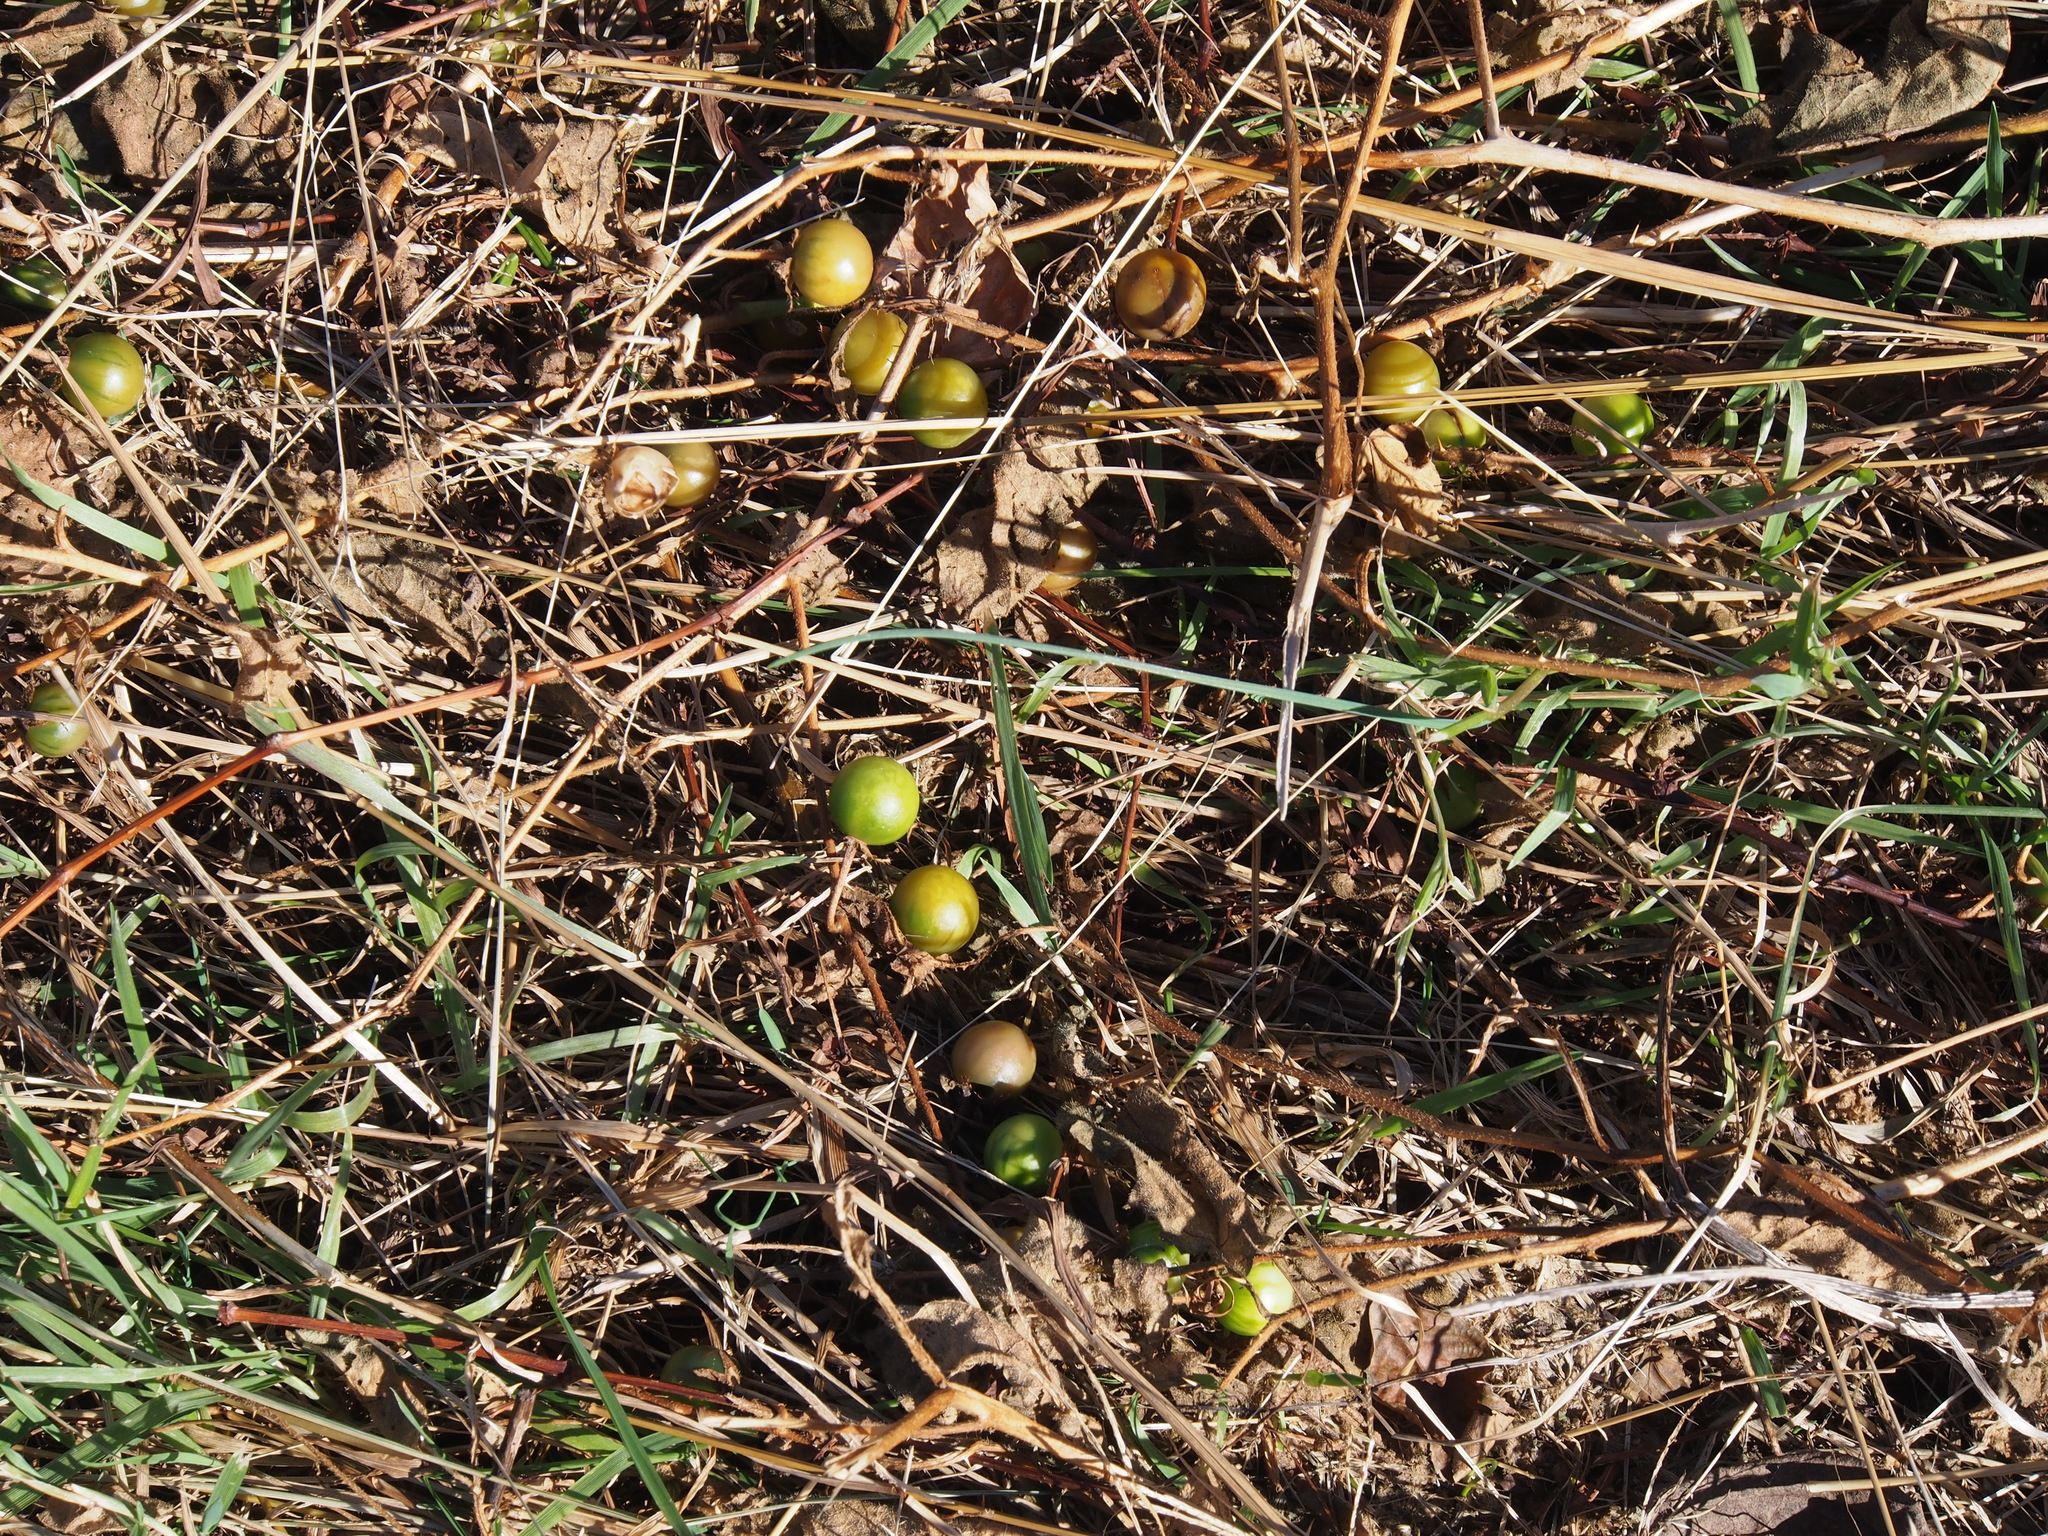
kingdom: Plantae
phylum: Tracheophyta
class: Magnoliopsida
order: Solanales
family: Solanaceae
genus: Solanum
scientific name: Solanum carolinense
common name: Horse-nettle
